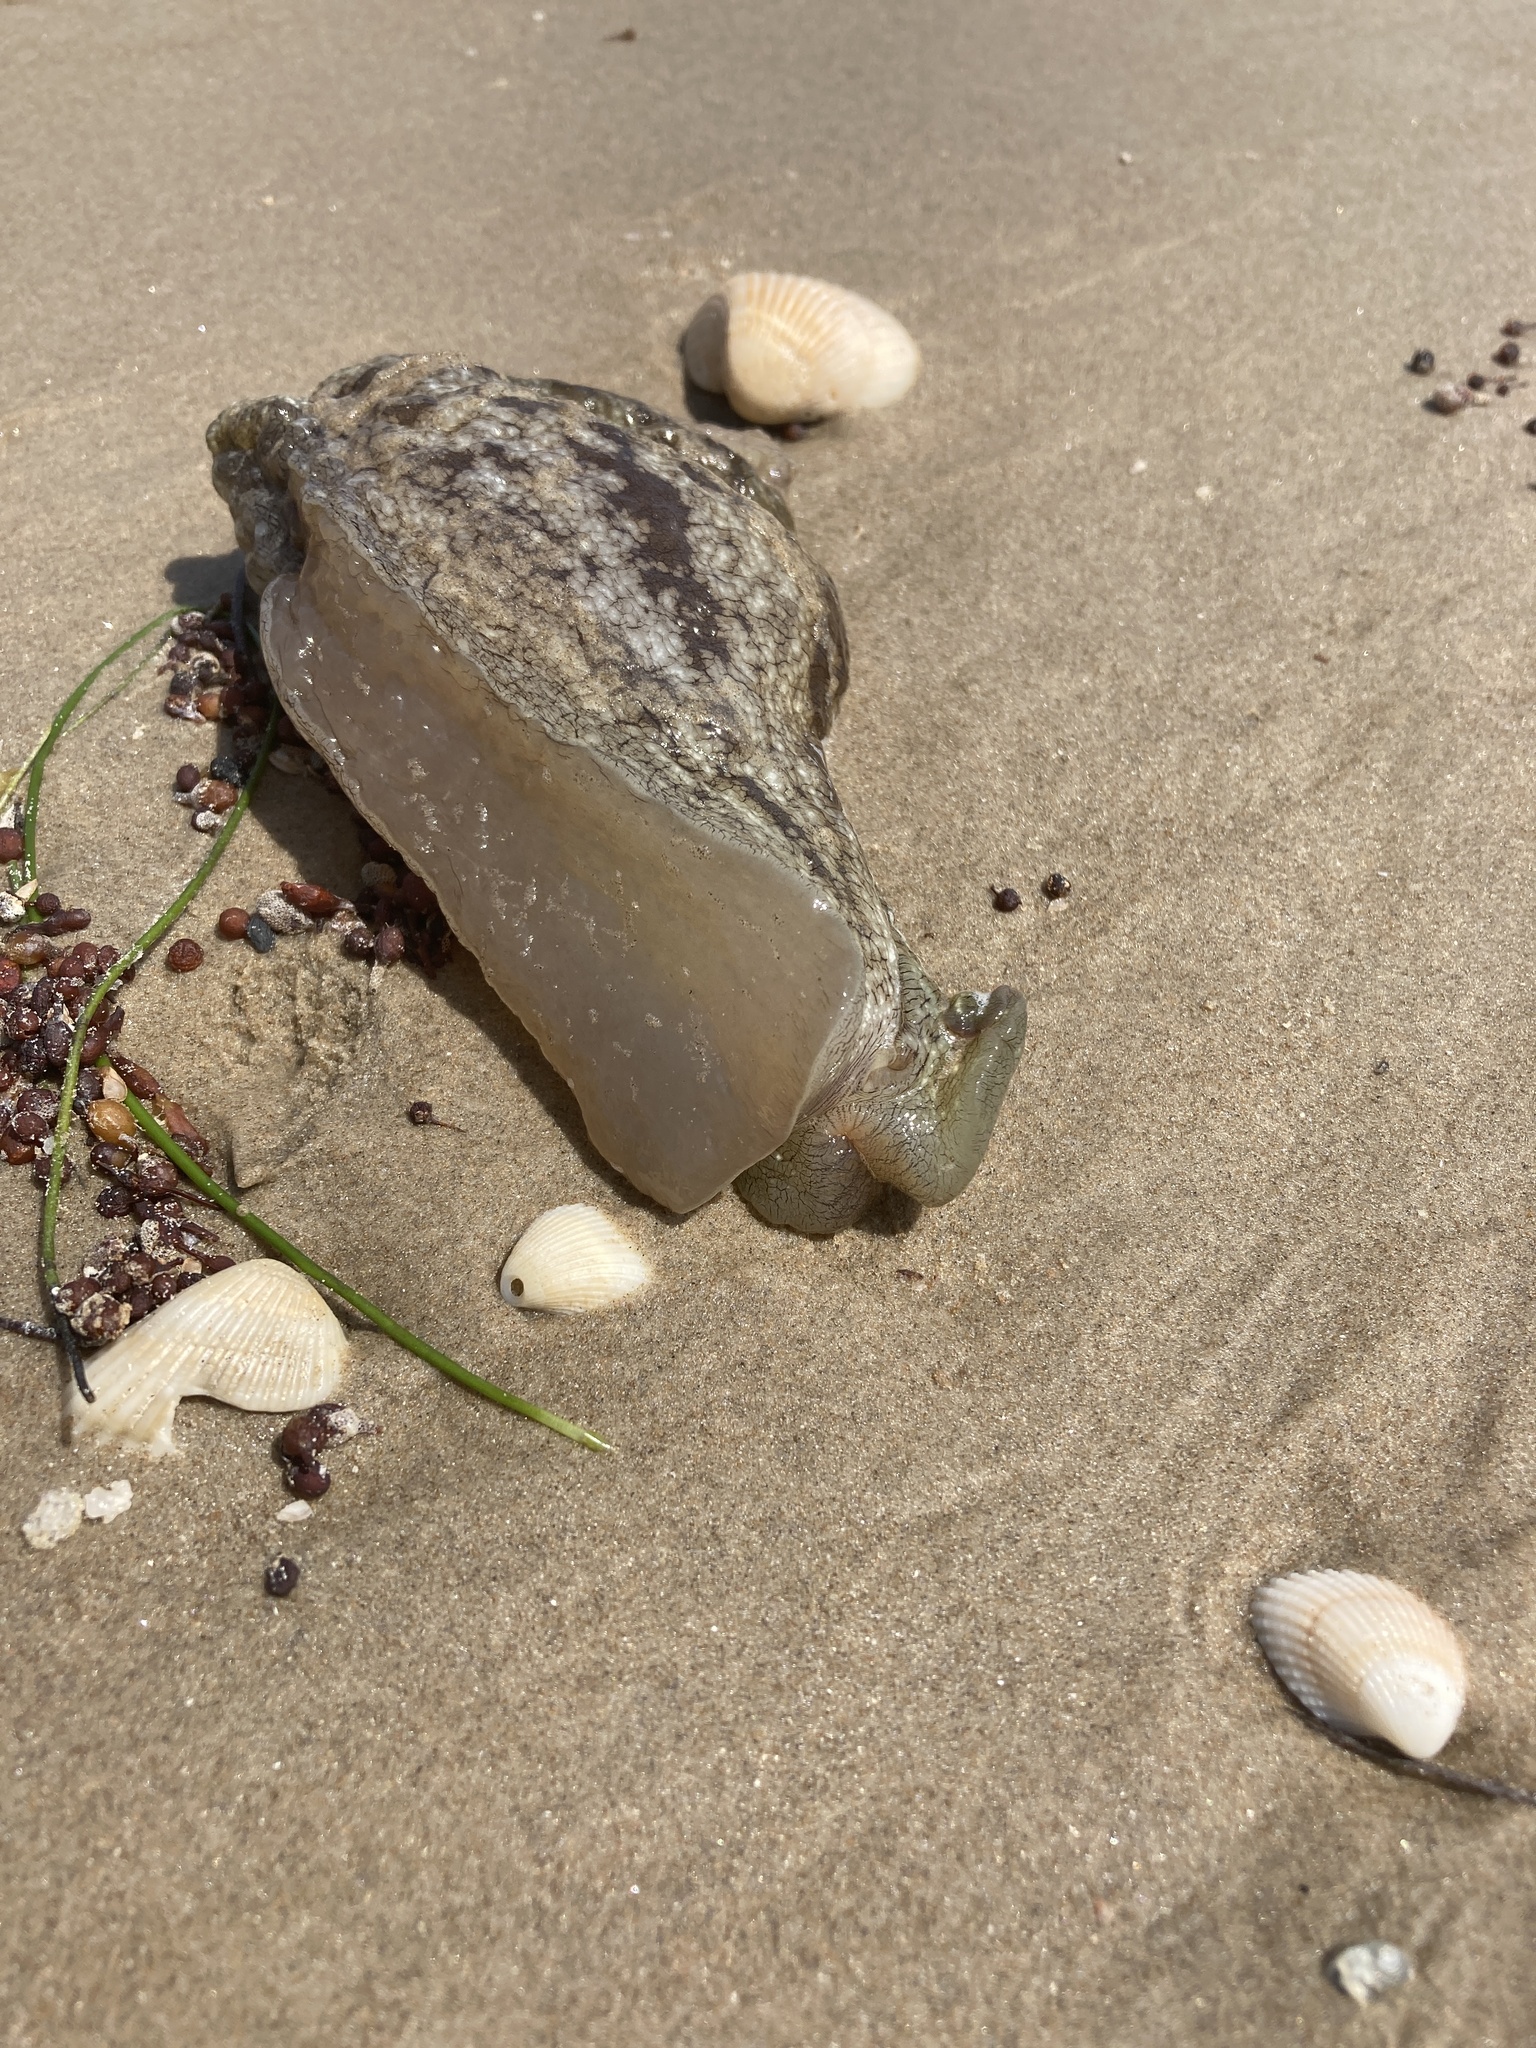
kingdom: Animalia
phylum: Mollusca
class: Gastropoda
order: Aplysiida
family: Aplysiidae
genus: Aplysia
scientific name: Aplysia brasiliana
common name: Mottled seahare
